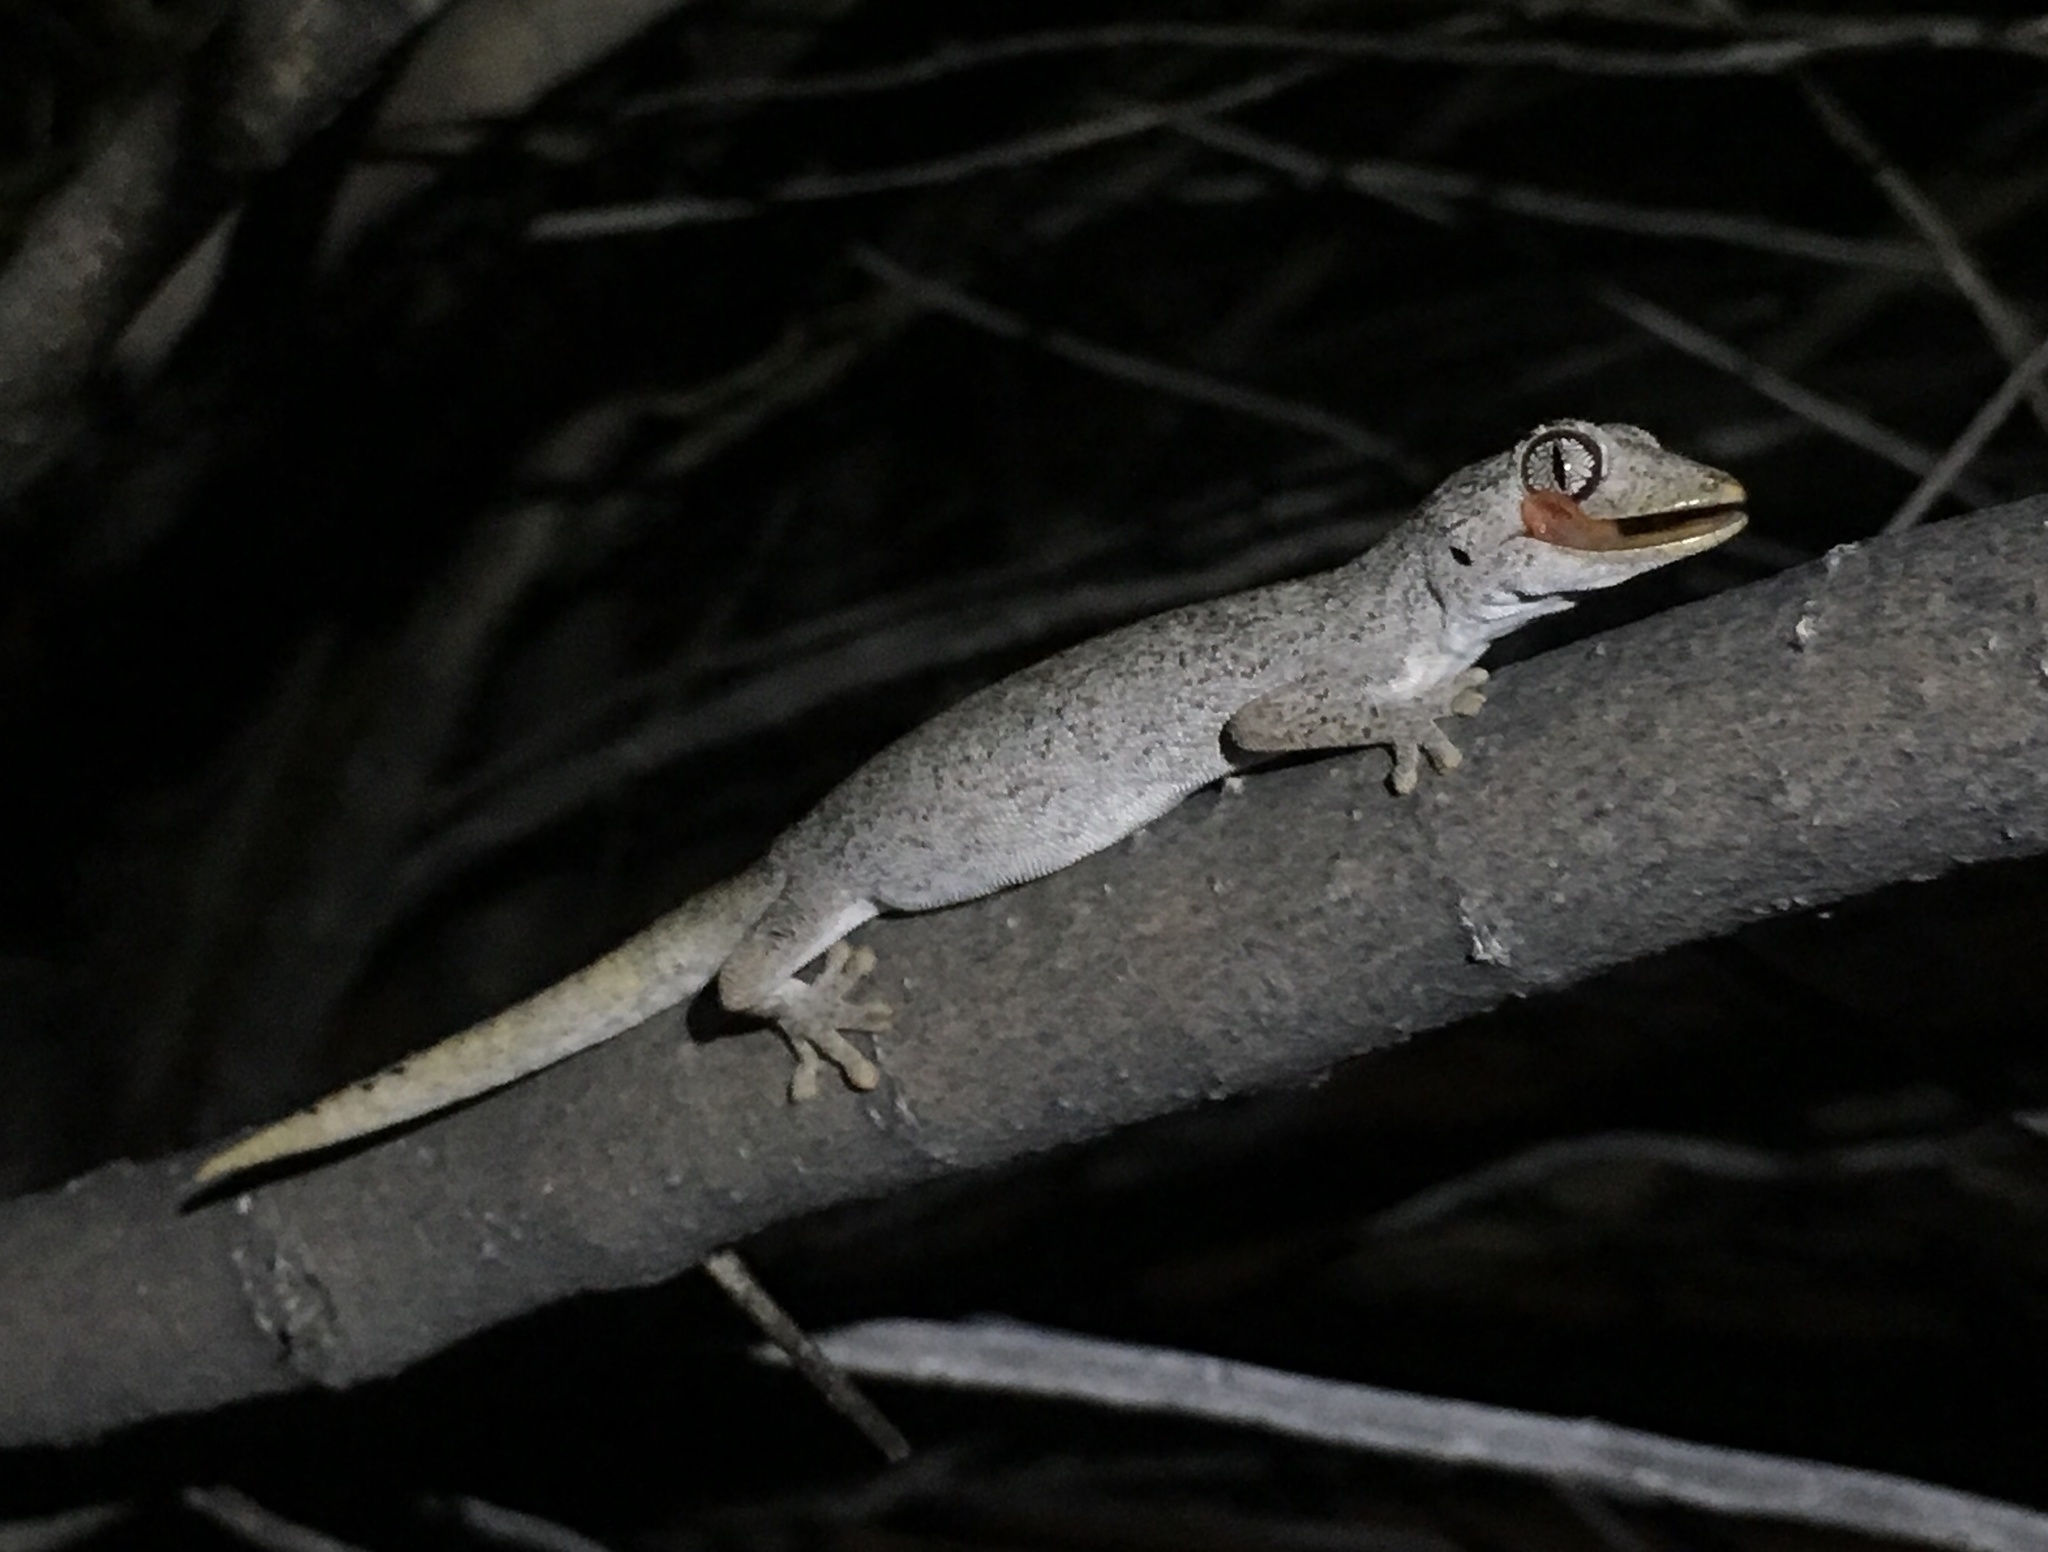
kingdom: Animalia
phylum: Chordata
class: Squamata
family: Diplodactylidae
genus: Strophurus
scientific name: Strophurus ciliaris
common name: Northern spiny-tailed gecko
